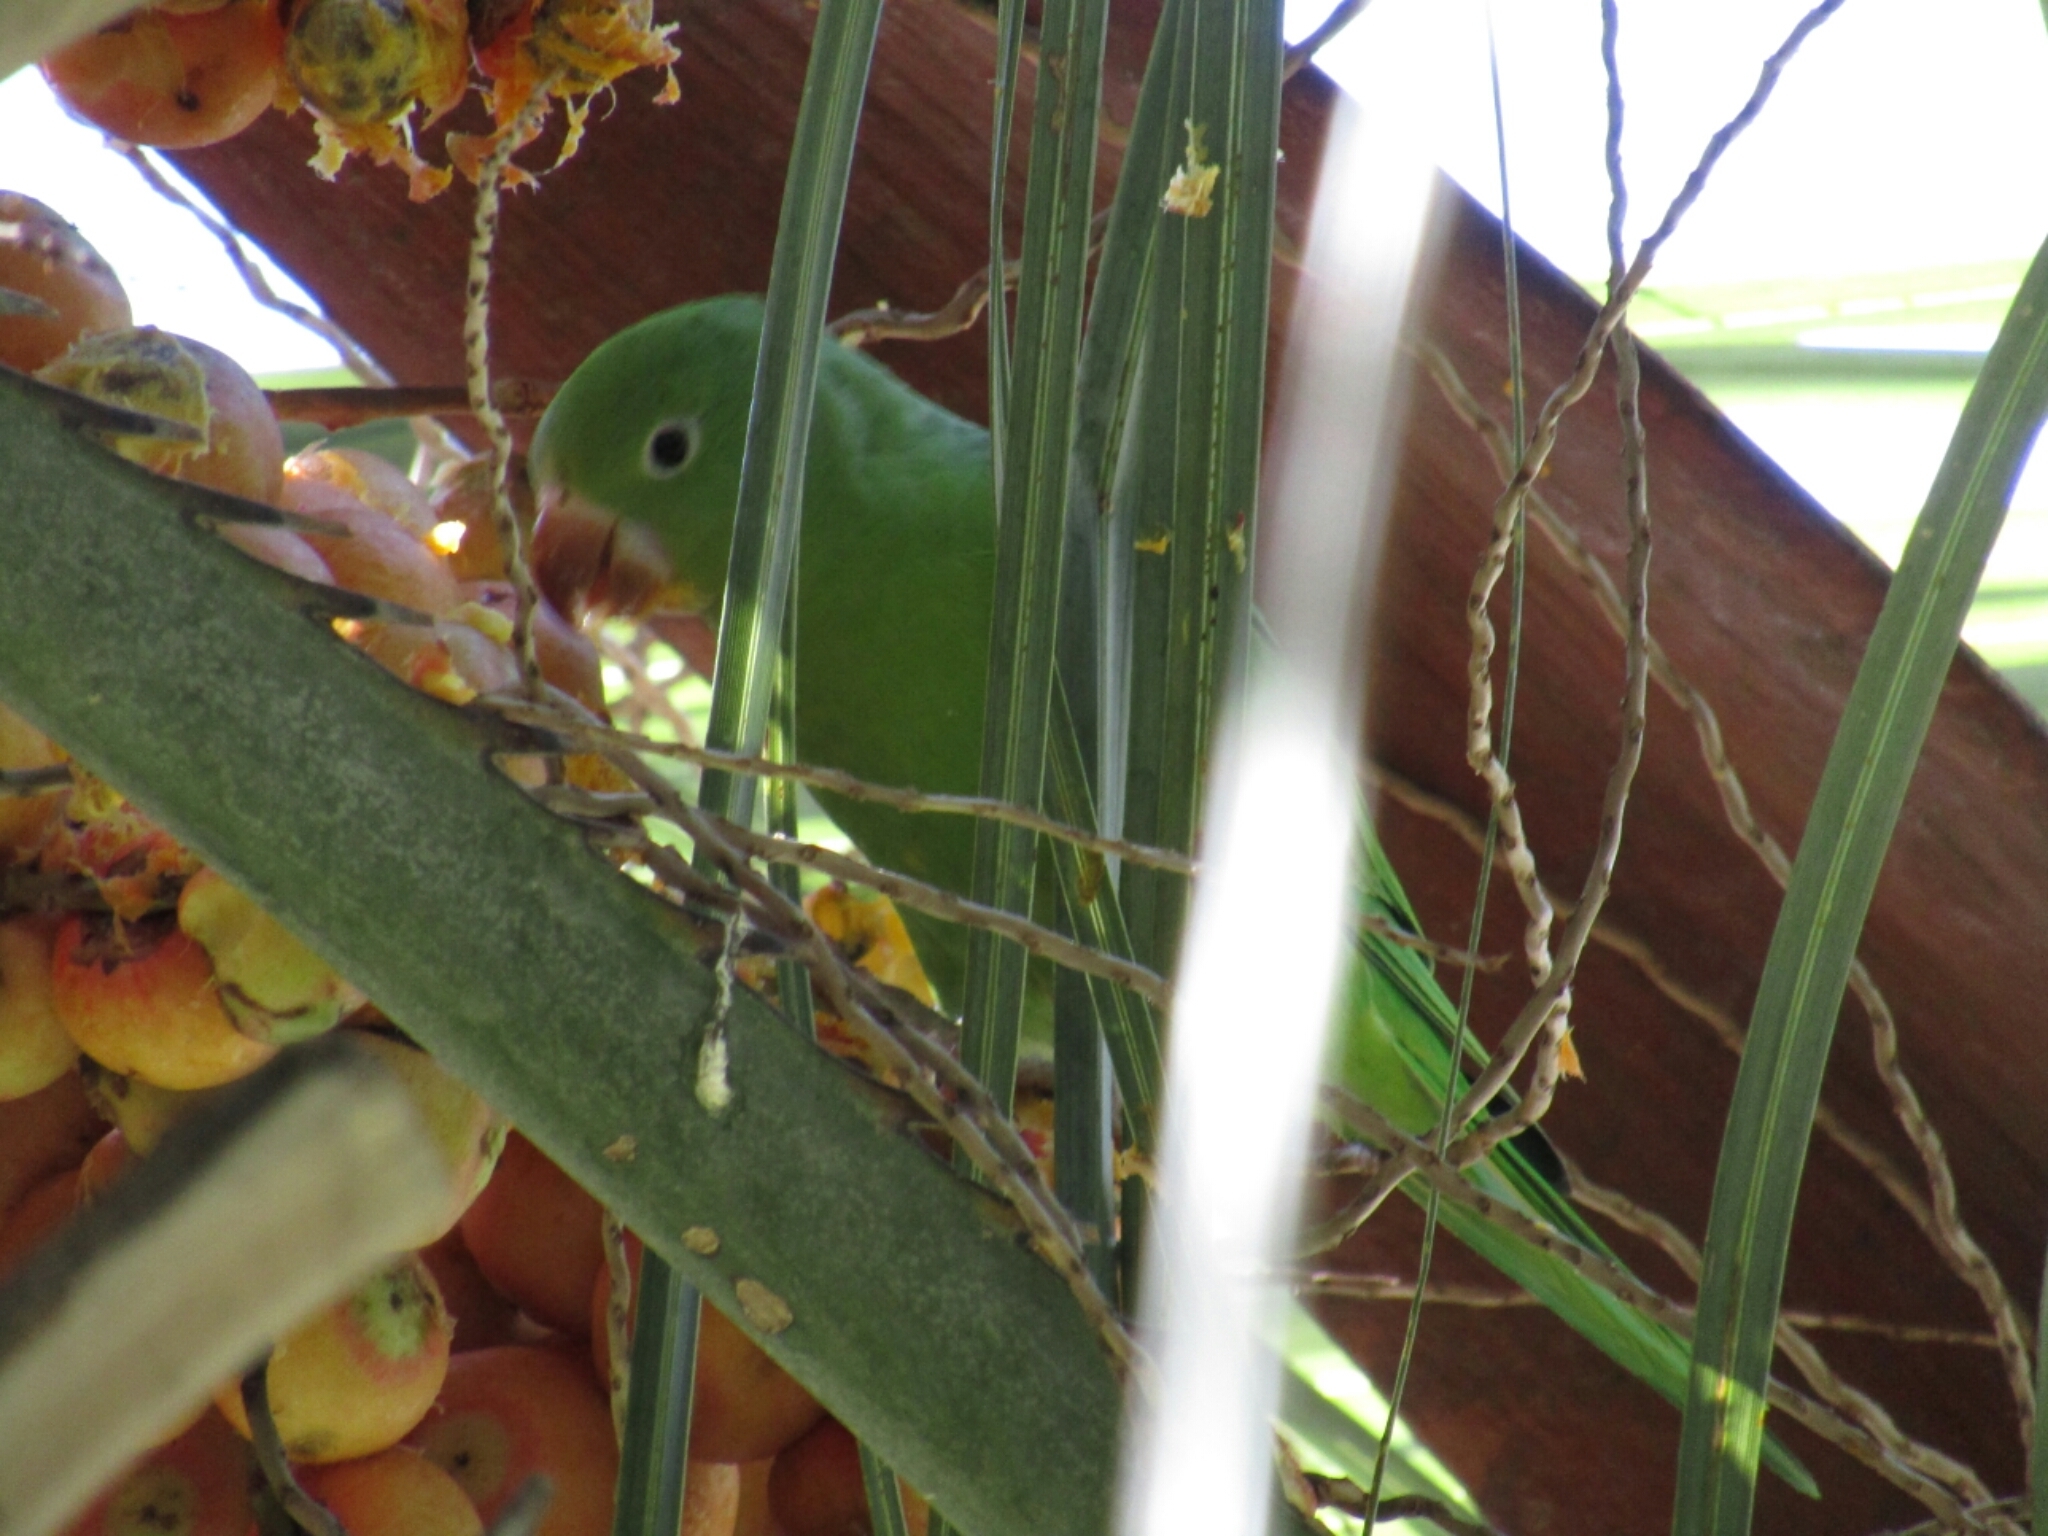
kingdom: Animalia
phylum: Chordata
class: Aves
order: Psittaciformes
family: Psittacidae
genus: Brotogeris
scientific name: Brotogeris chiriri
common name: Yellow-chevroned parakeet
